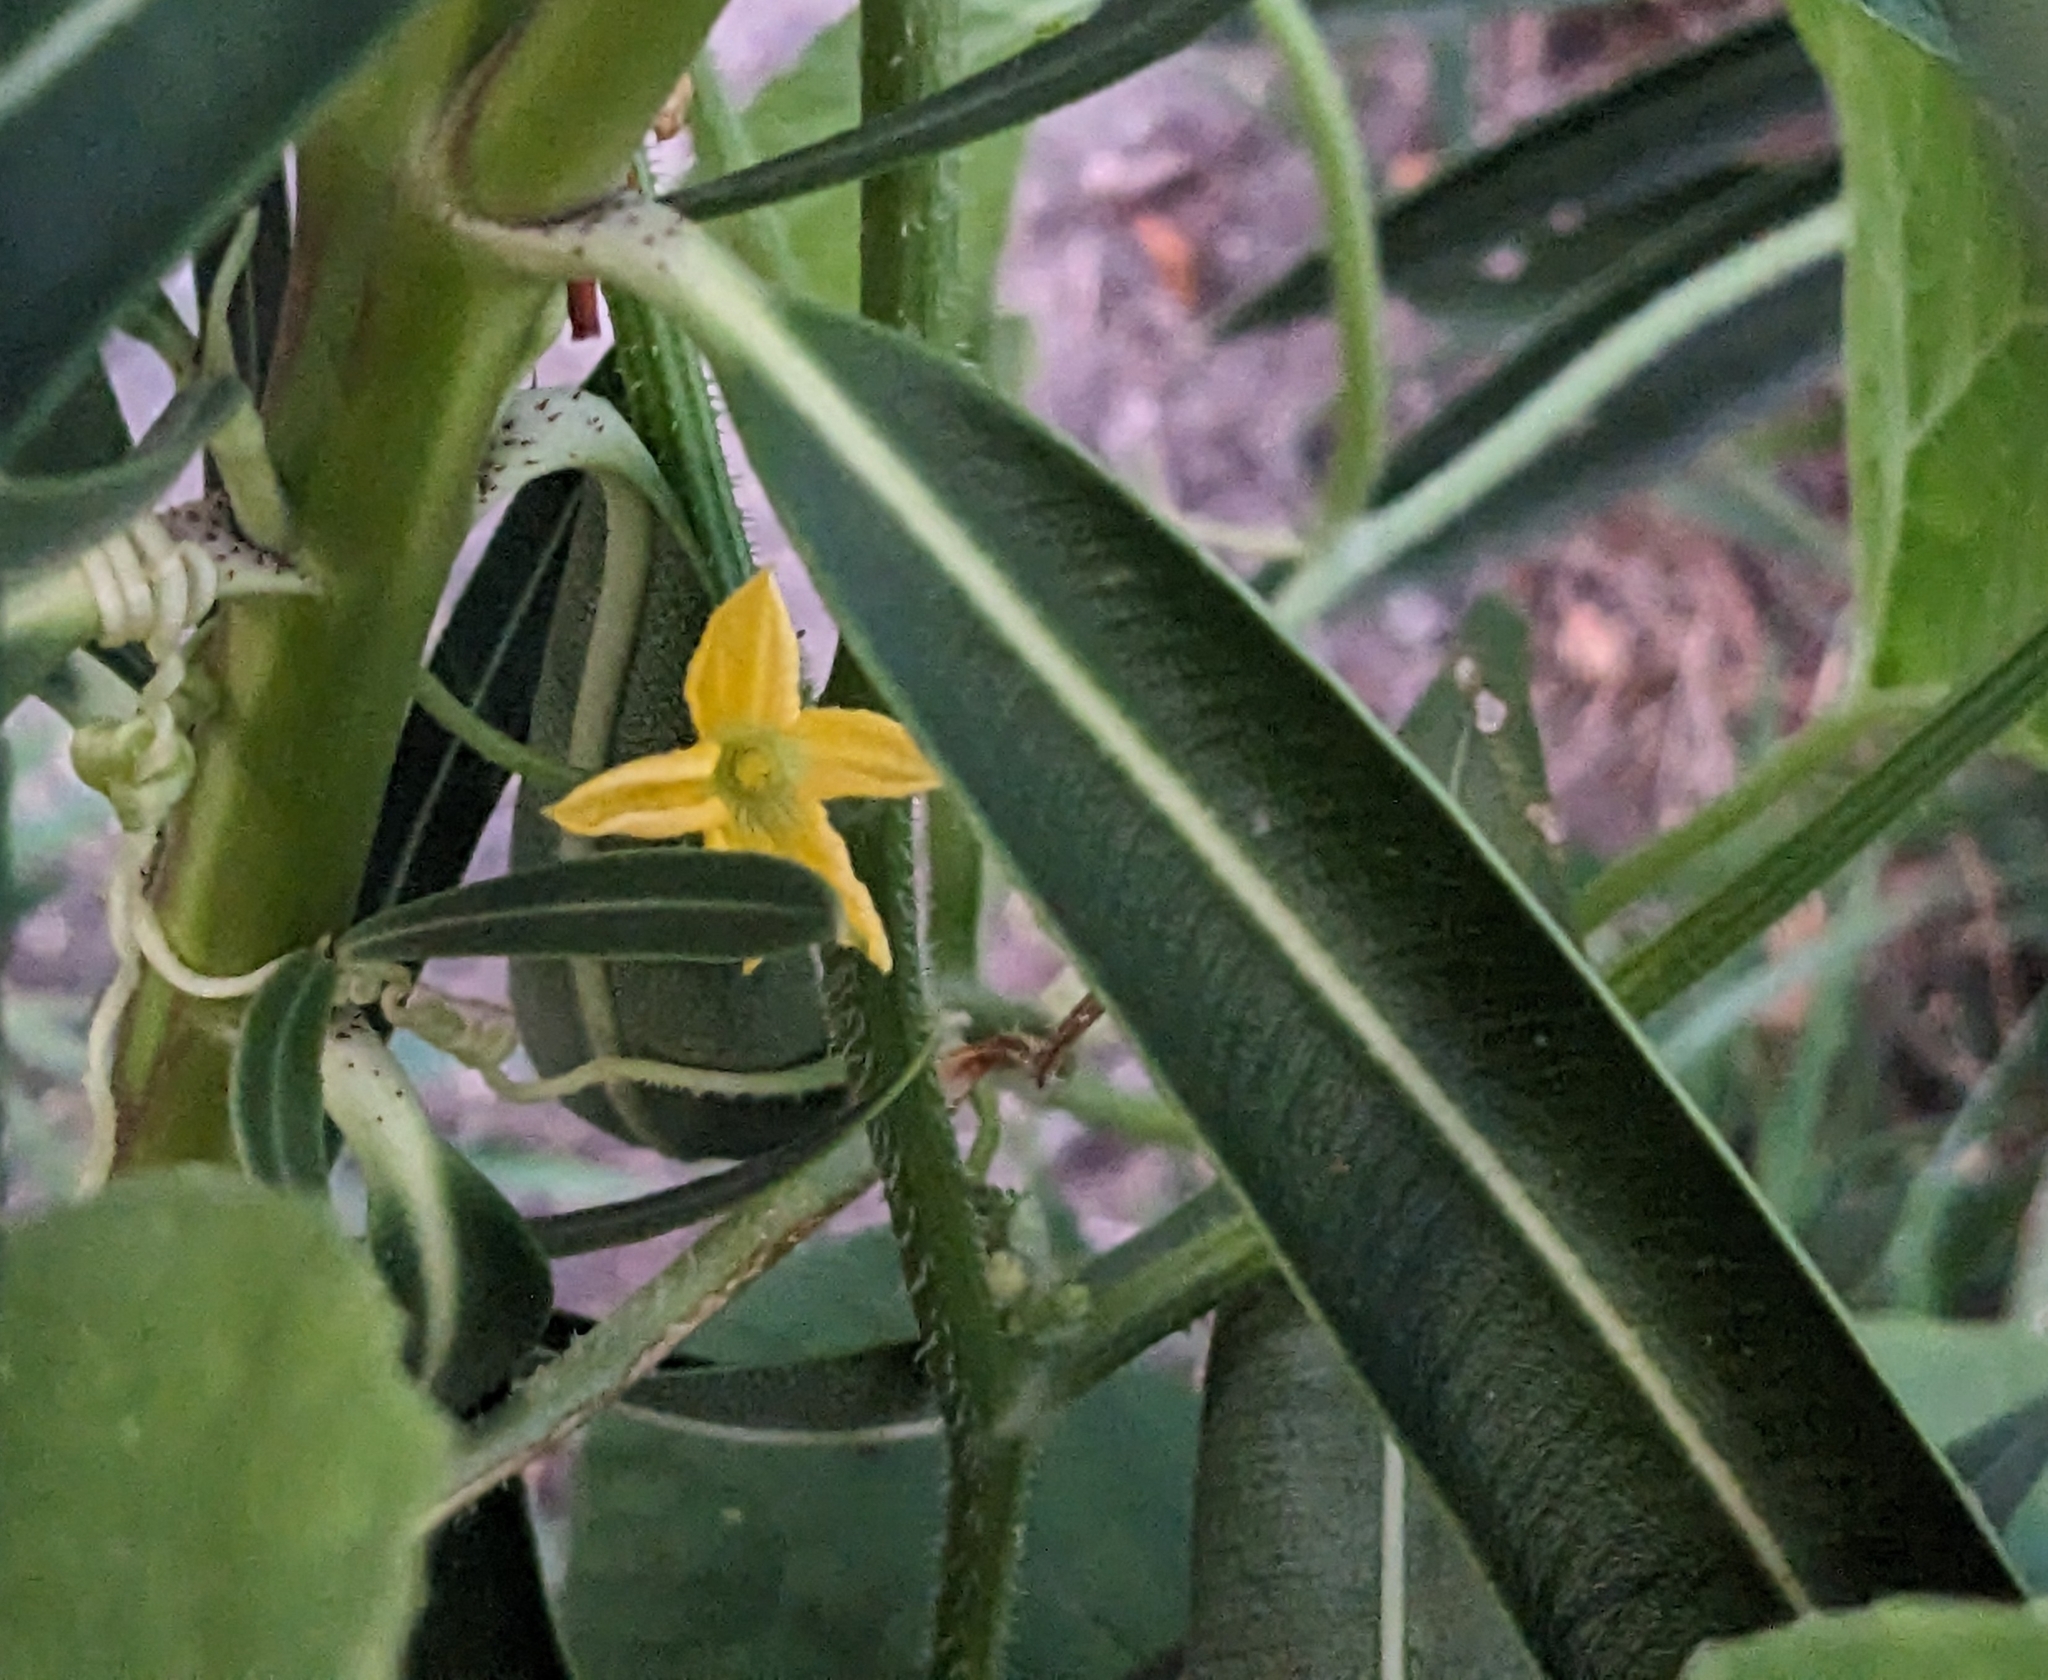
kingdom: Plantae
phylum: Tracheophyta
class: Magnoliopsida
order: Cucurbitales
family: Cucurbitaceae
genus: Cucumis
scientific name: Cucumis melo
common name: Melon
